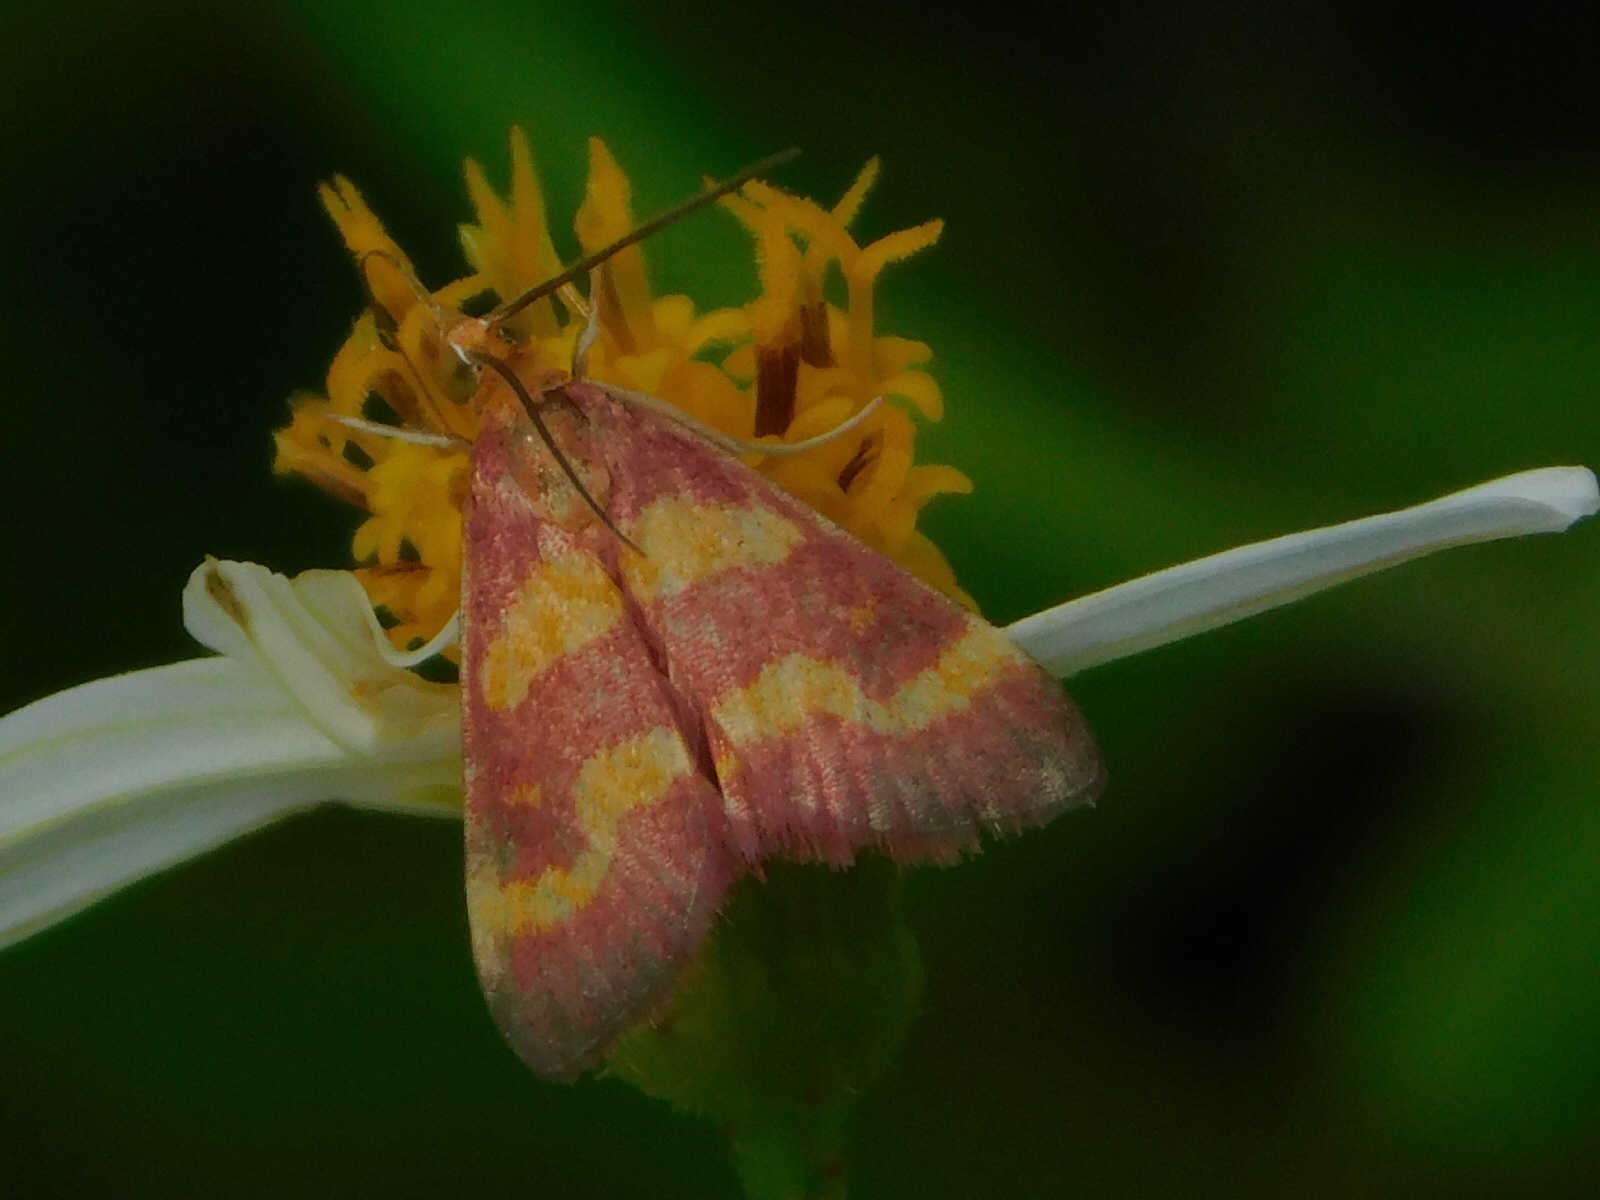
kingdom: Animalia
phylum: Arthropoda
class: Insecta
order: Lepidoptera
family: Crambidae
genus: Pyrausta
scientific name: Pyrausta tyralis
